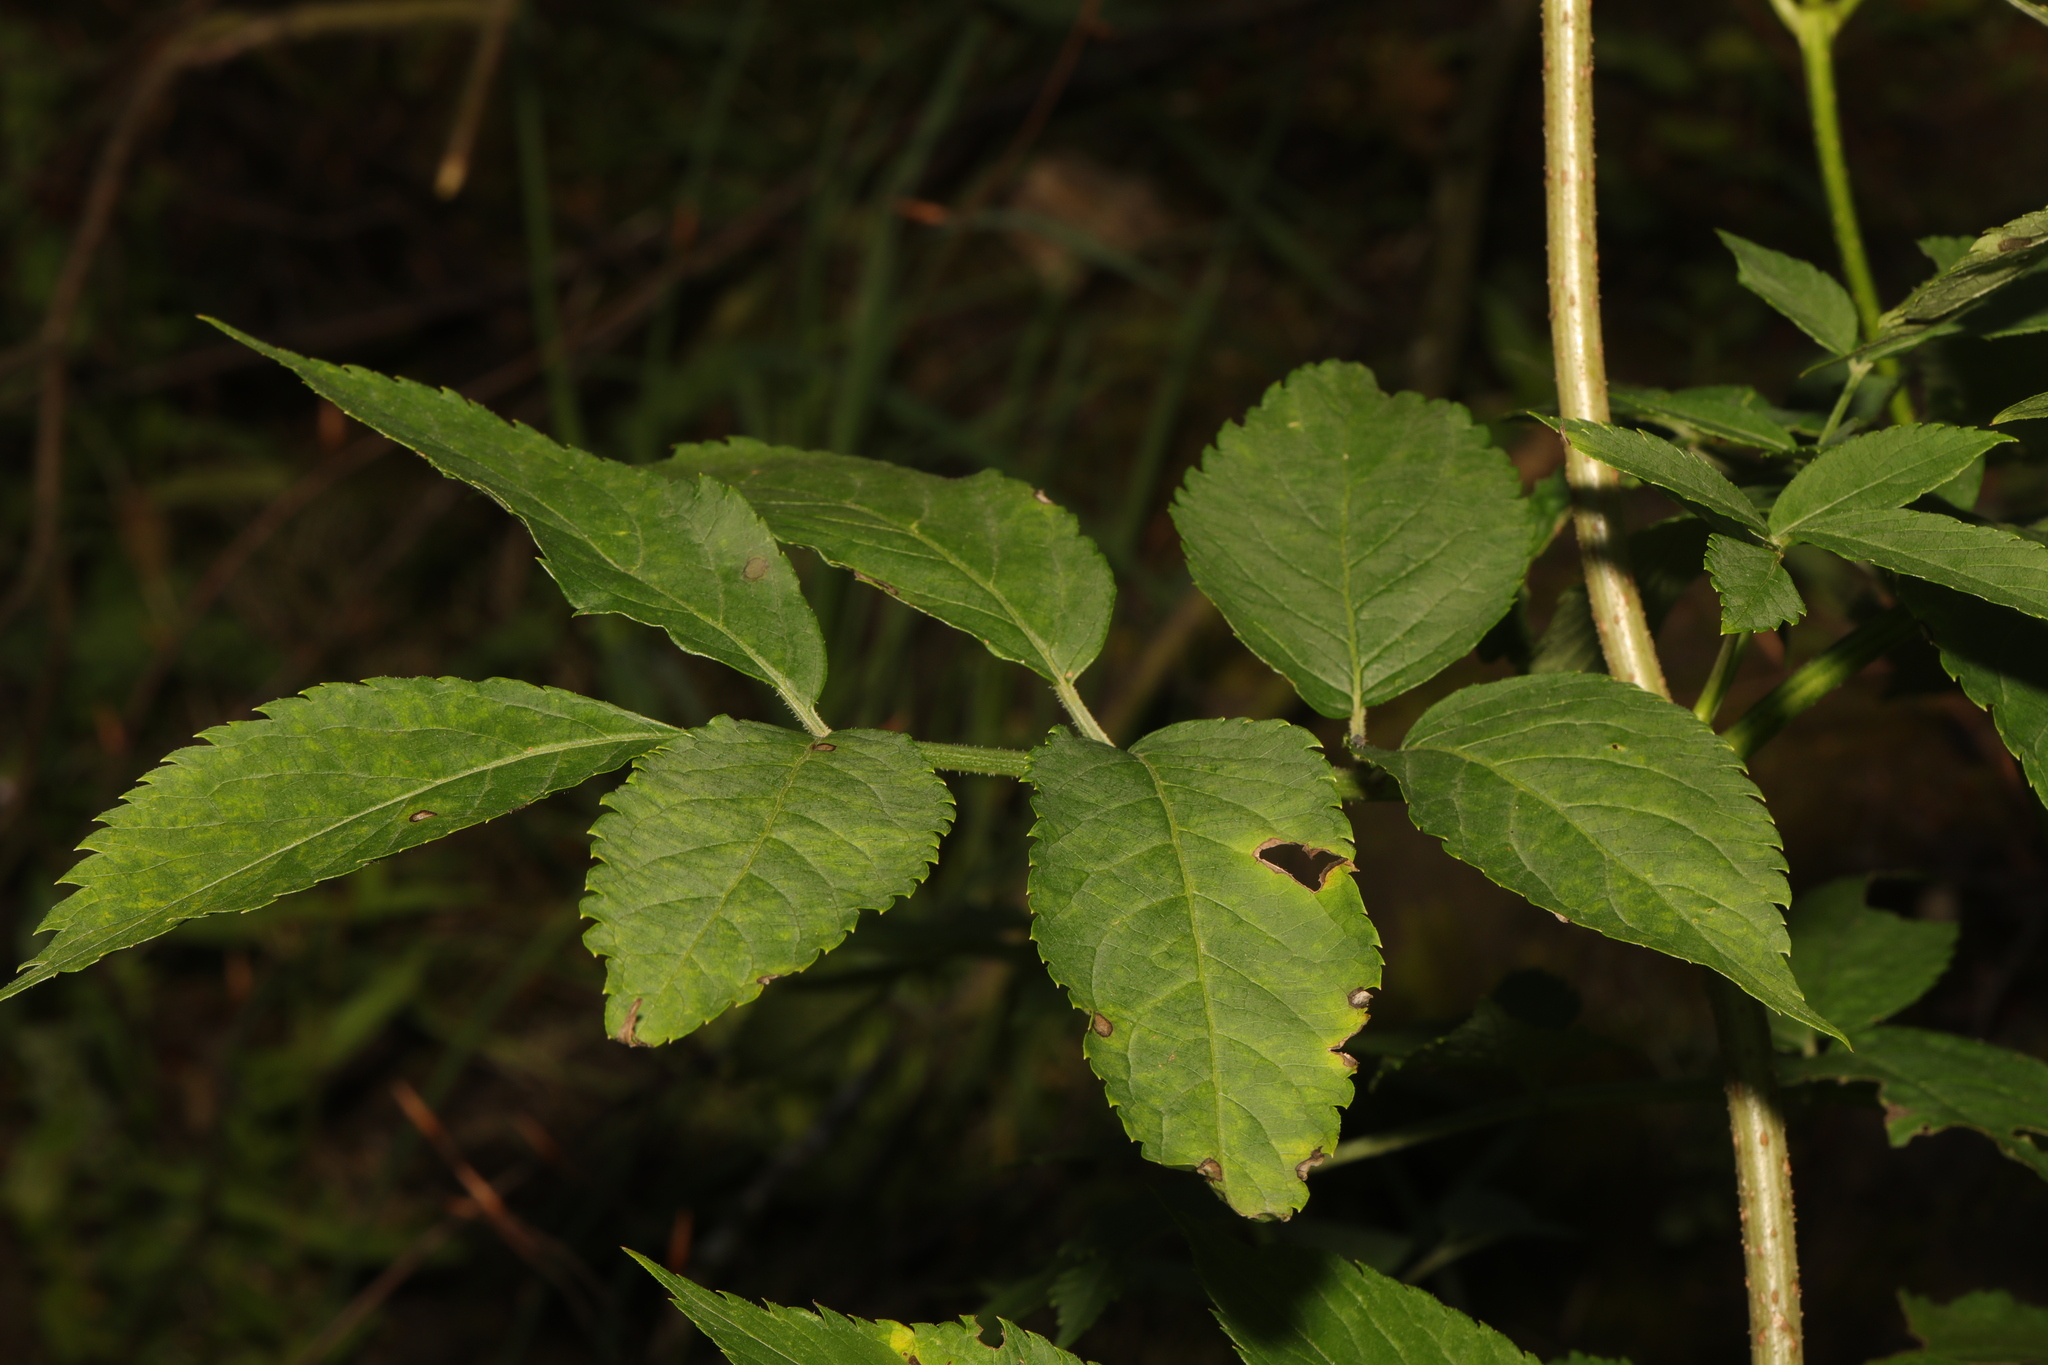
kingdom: Plantae
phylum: Tracheophyta
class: Magnoliopsida
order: Dipsacales
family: Viburnaceae
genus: Sambucus
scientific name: Sambucus nigra
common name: Elder
